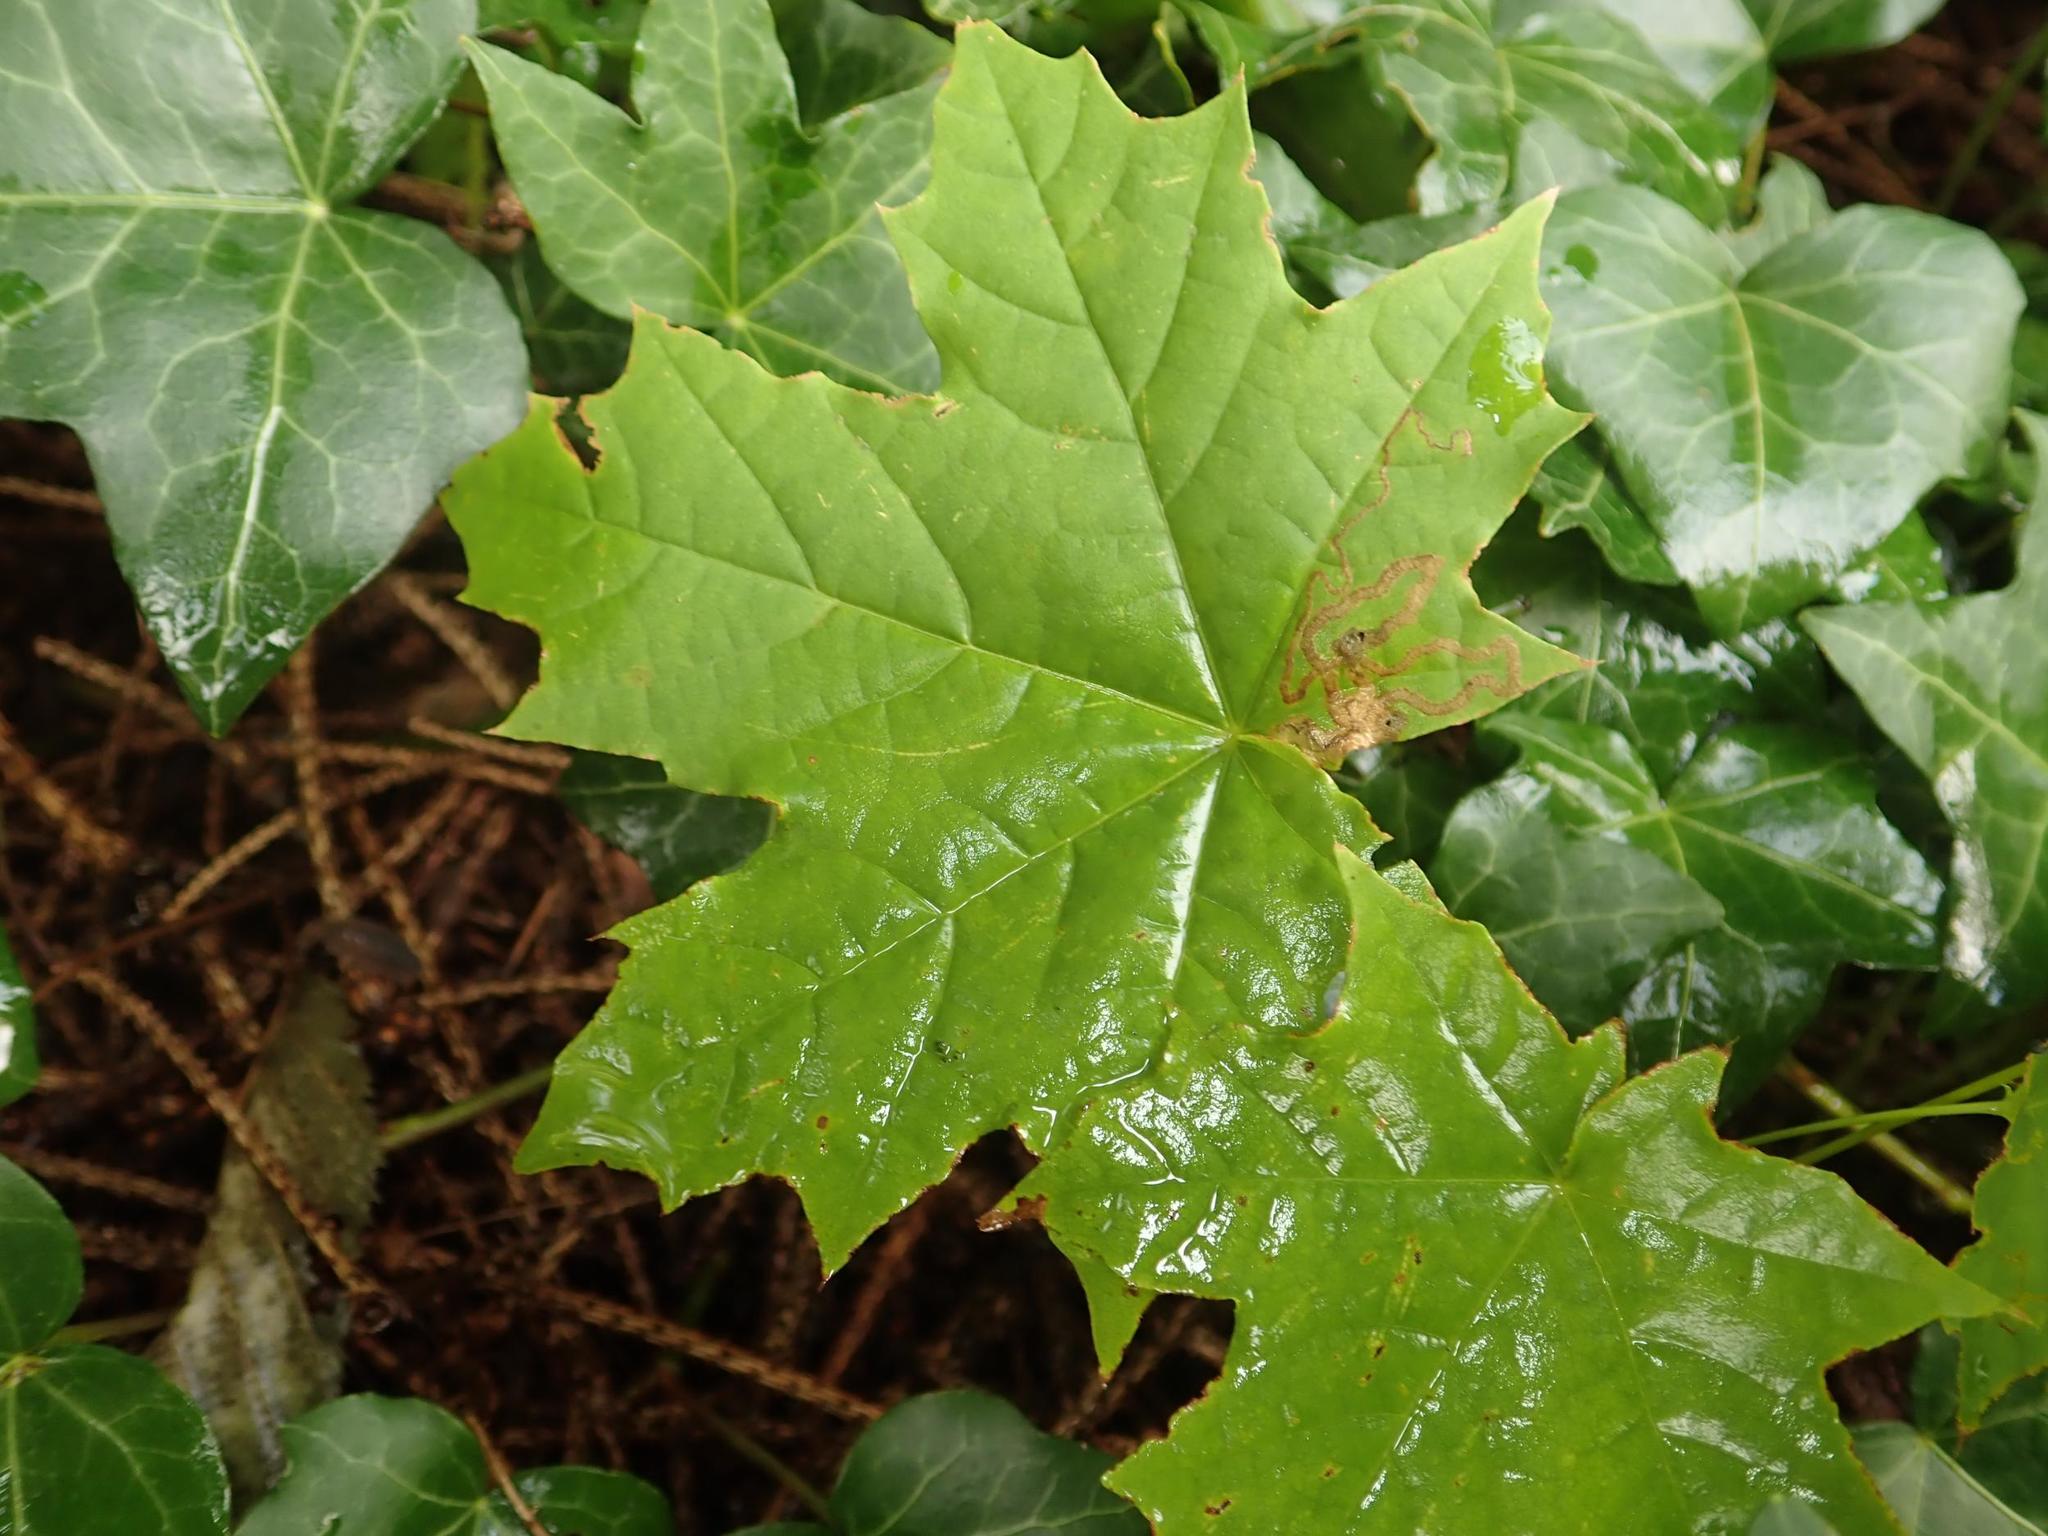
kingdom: Plantae
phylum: Tracheophyta
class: Magnoliopsida
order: Sapindales
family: Sapindaceae
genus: Acer
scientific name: Acer platanoides
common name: Norway maple
